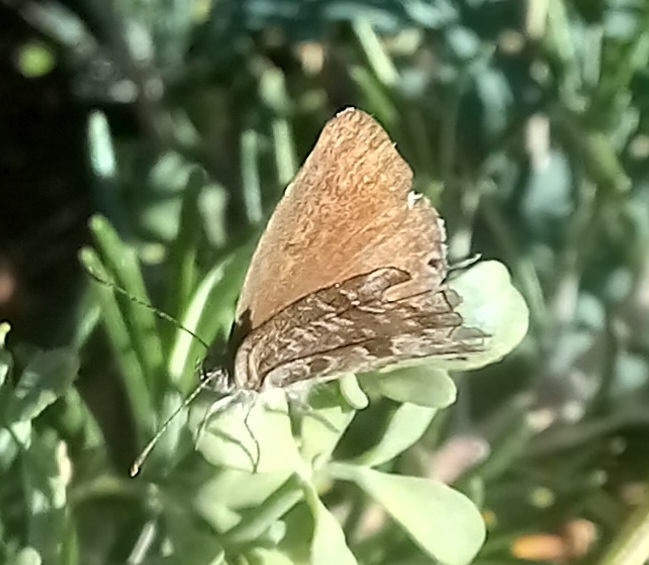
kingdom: Animalia
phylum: Arthropoda
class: Insecta
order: Lepidoptera
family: Lycaenidae
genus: Cacyreus
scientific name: Cacyreus marshalli
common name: Geranium bronze
